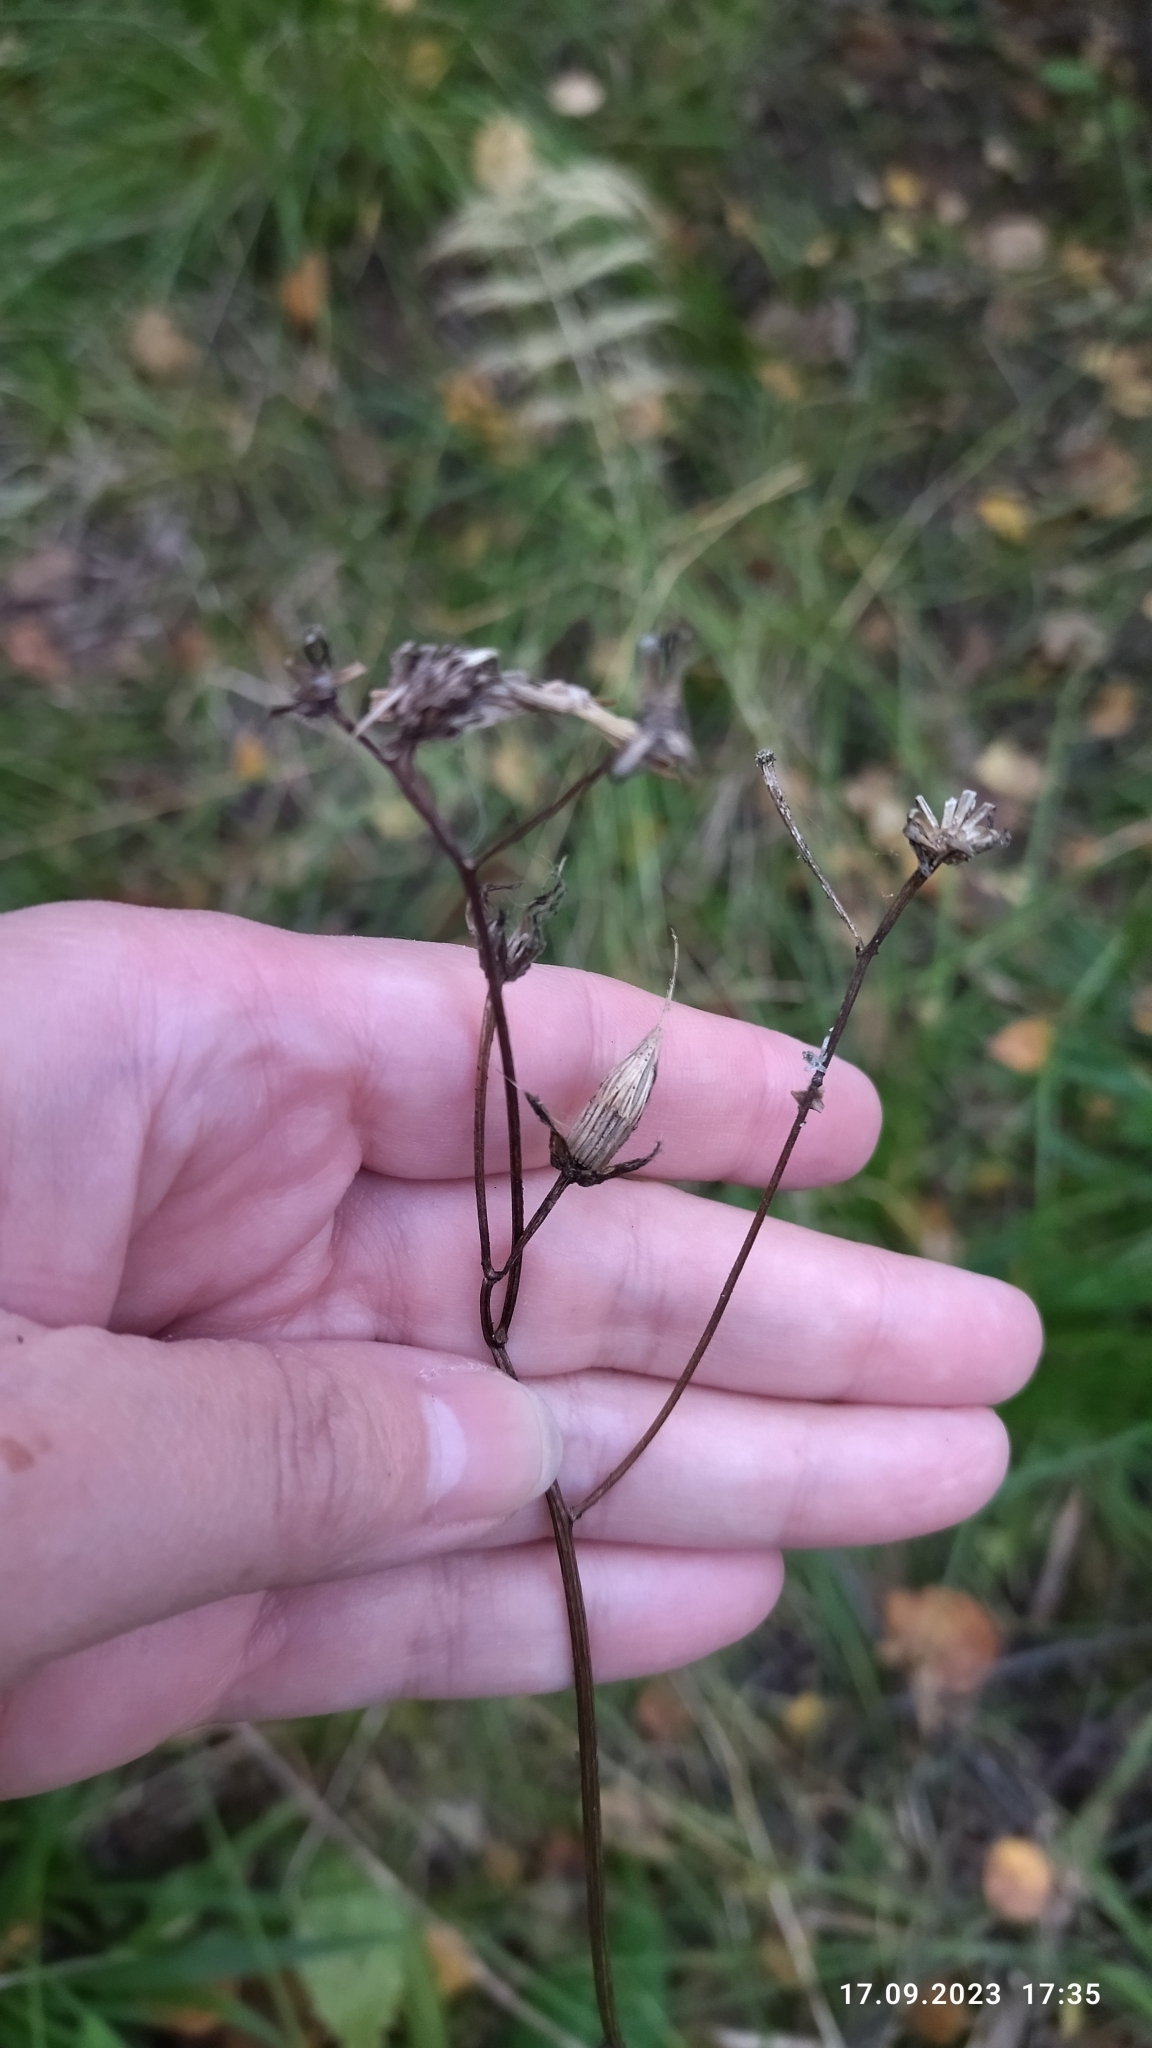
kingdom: Plantae
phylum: Tracheophyta
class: Magnoliopsida
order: Asterales
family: Asteraceae
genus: Crepis
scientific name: Crepis paludosa
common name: Marsh hawk's-beard
